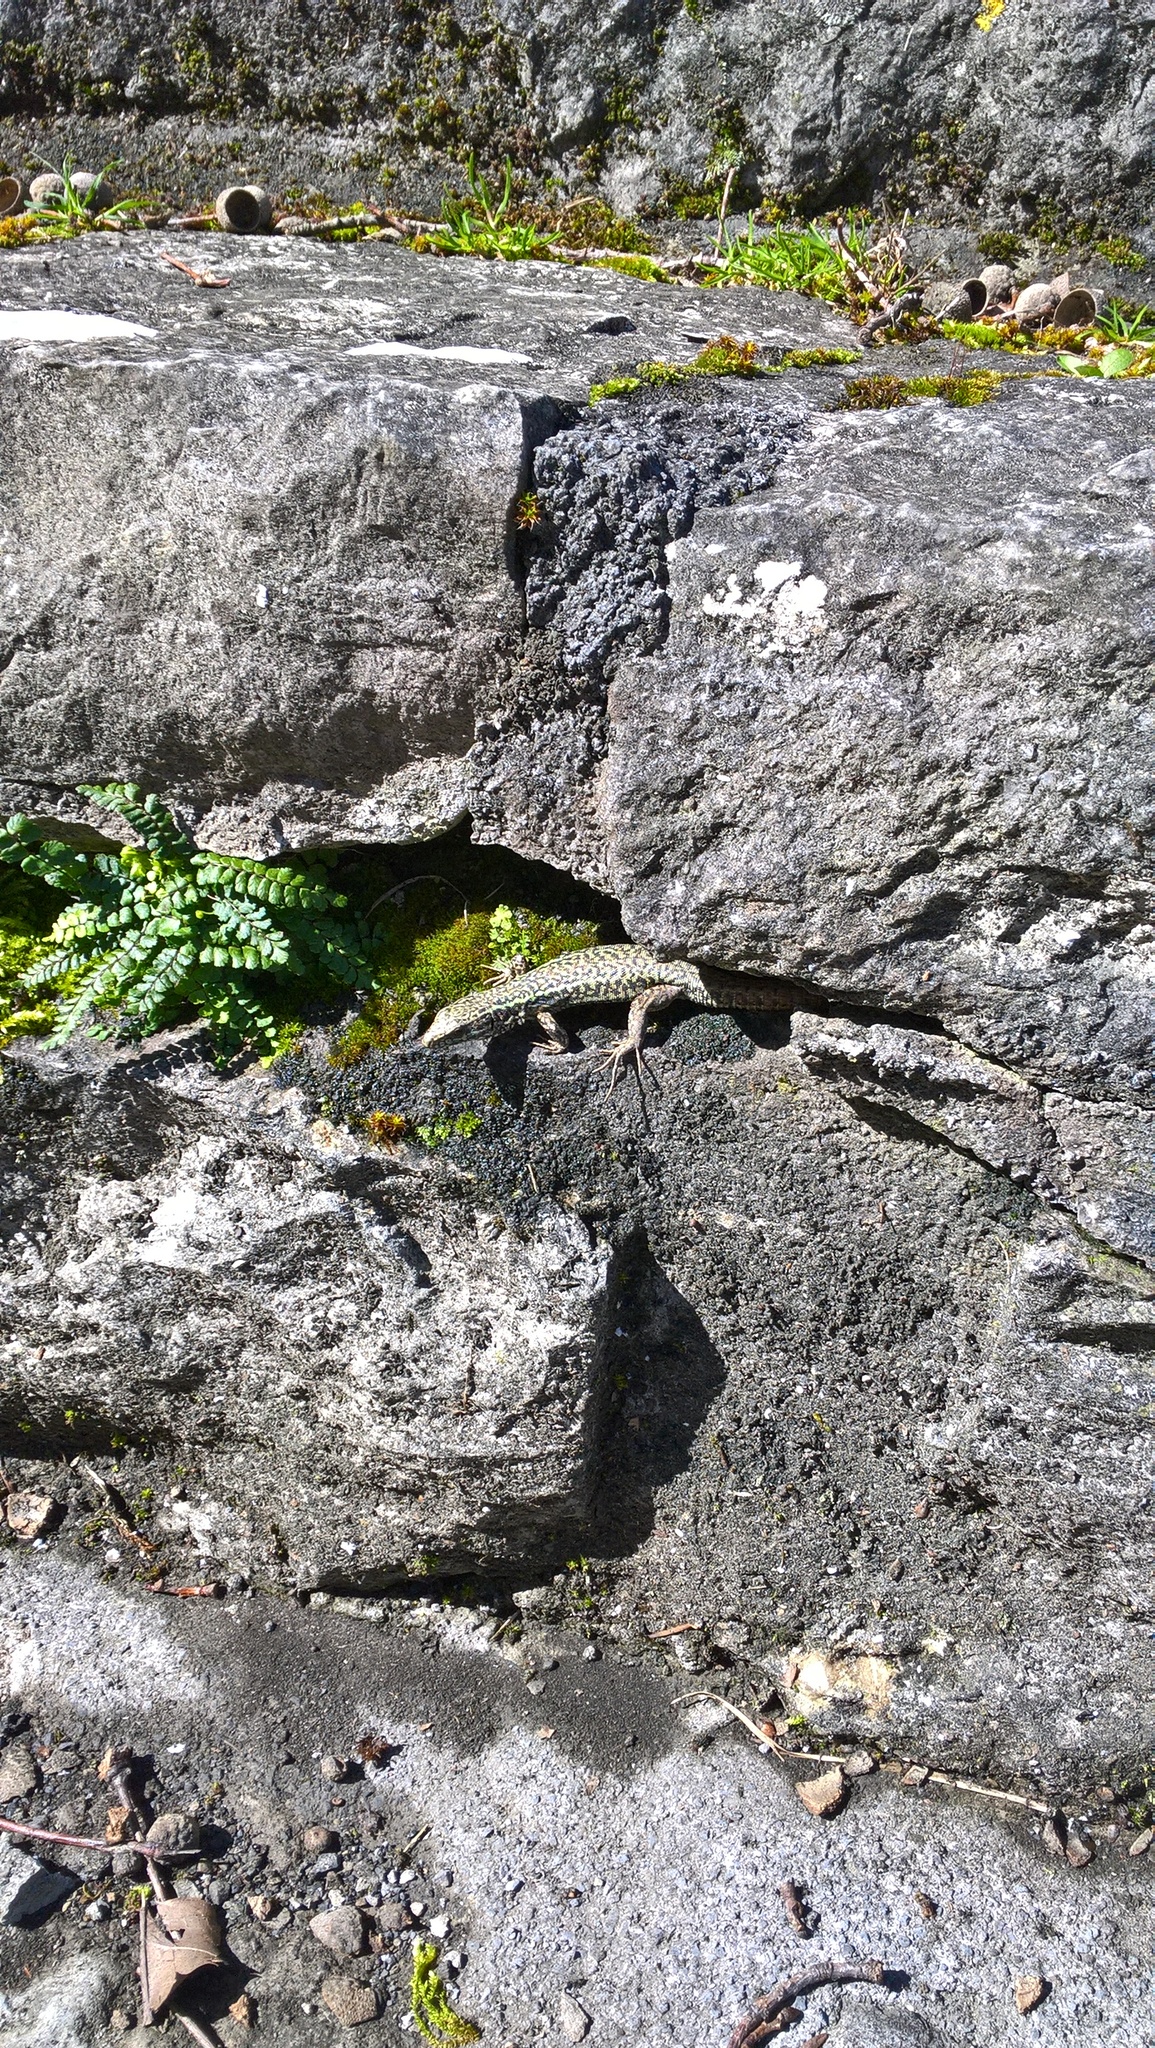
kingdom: Animalia
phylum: Chordata
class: Squamata
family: Lacertidae
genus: Podarcis
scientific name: Podarcis muralis
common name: Common wall lizard
